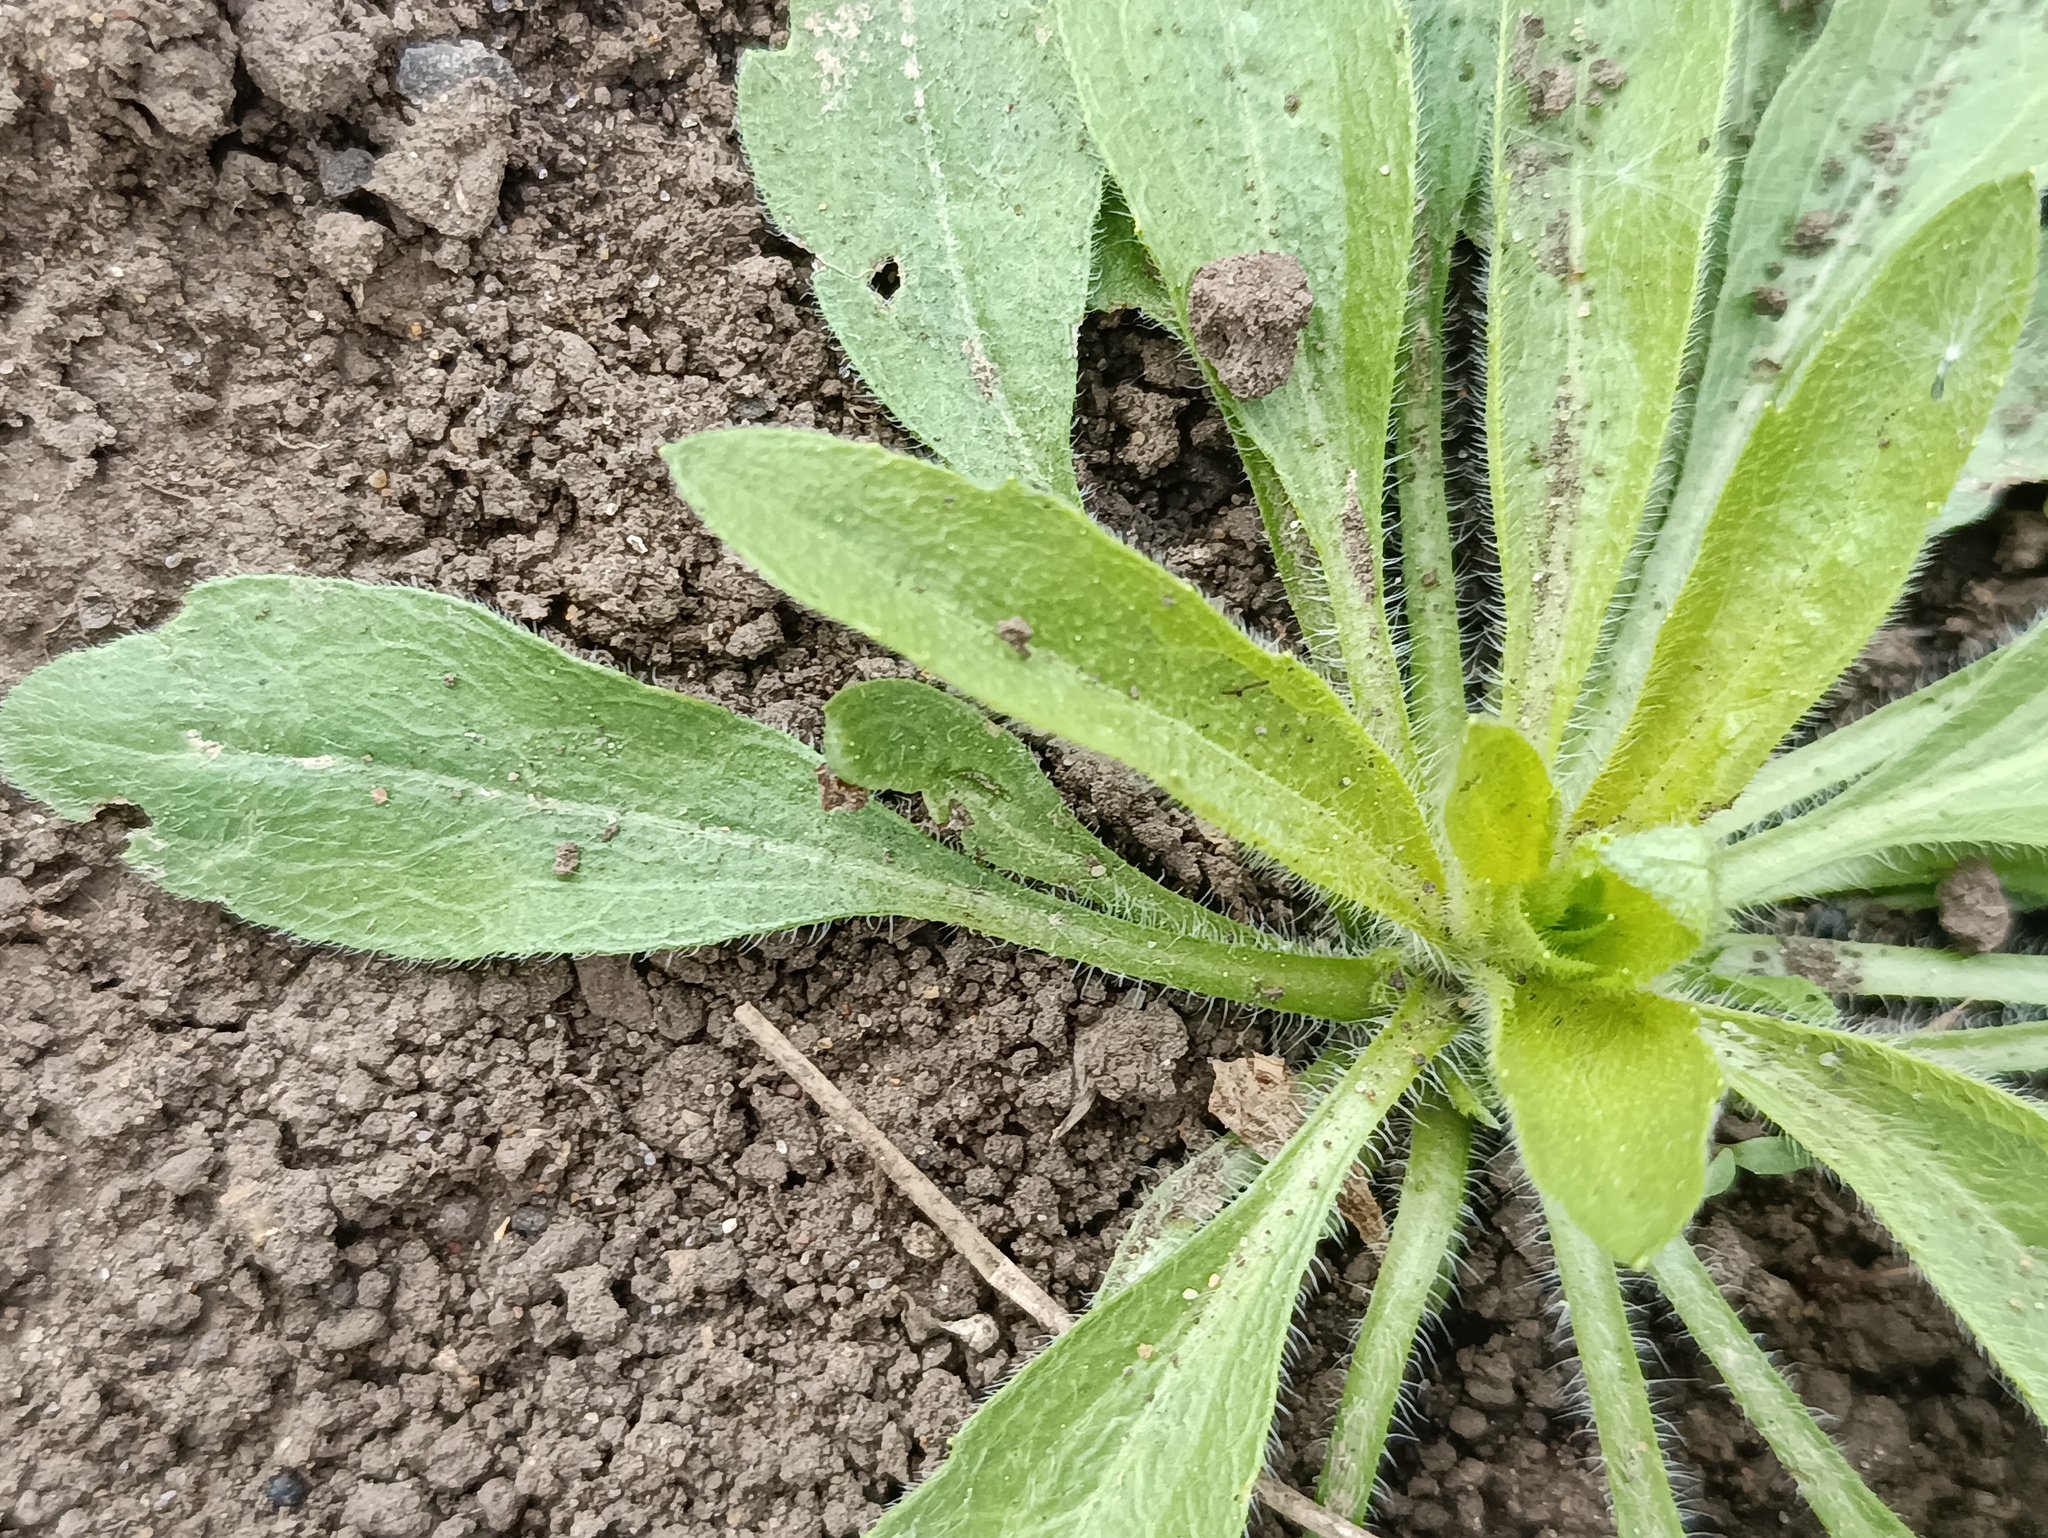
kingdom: Plantae
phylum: Tracheophyta
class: Magnoliopsida
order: Asterales
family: Asteraceae
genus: Erigeron
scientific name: Erigeron canadensis
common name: Canadian fleabane
